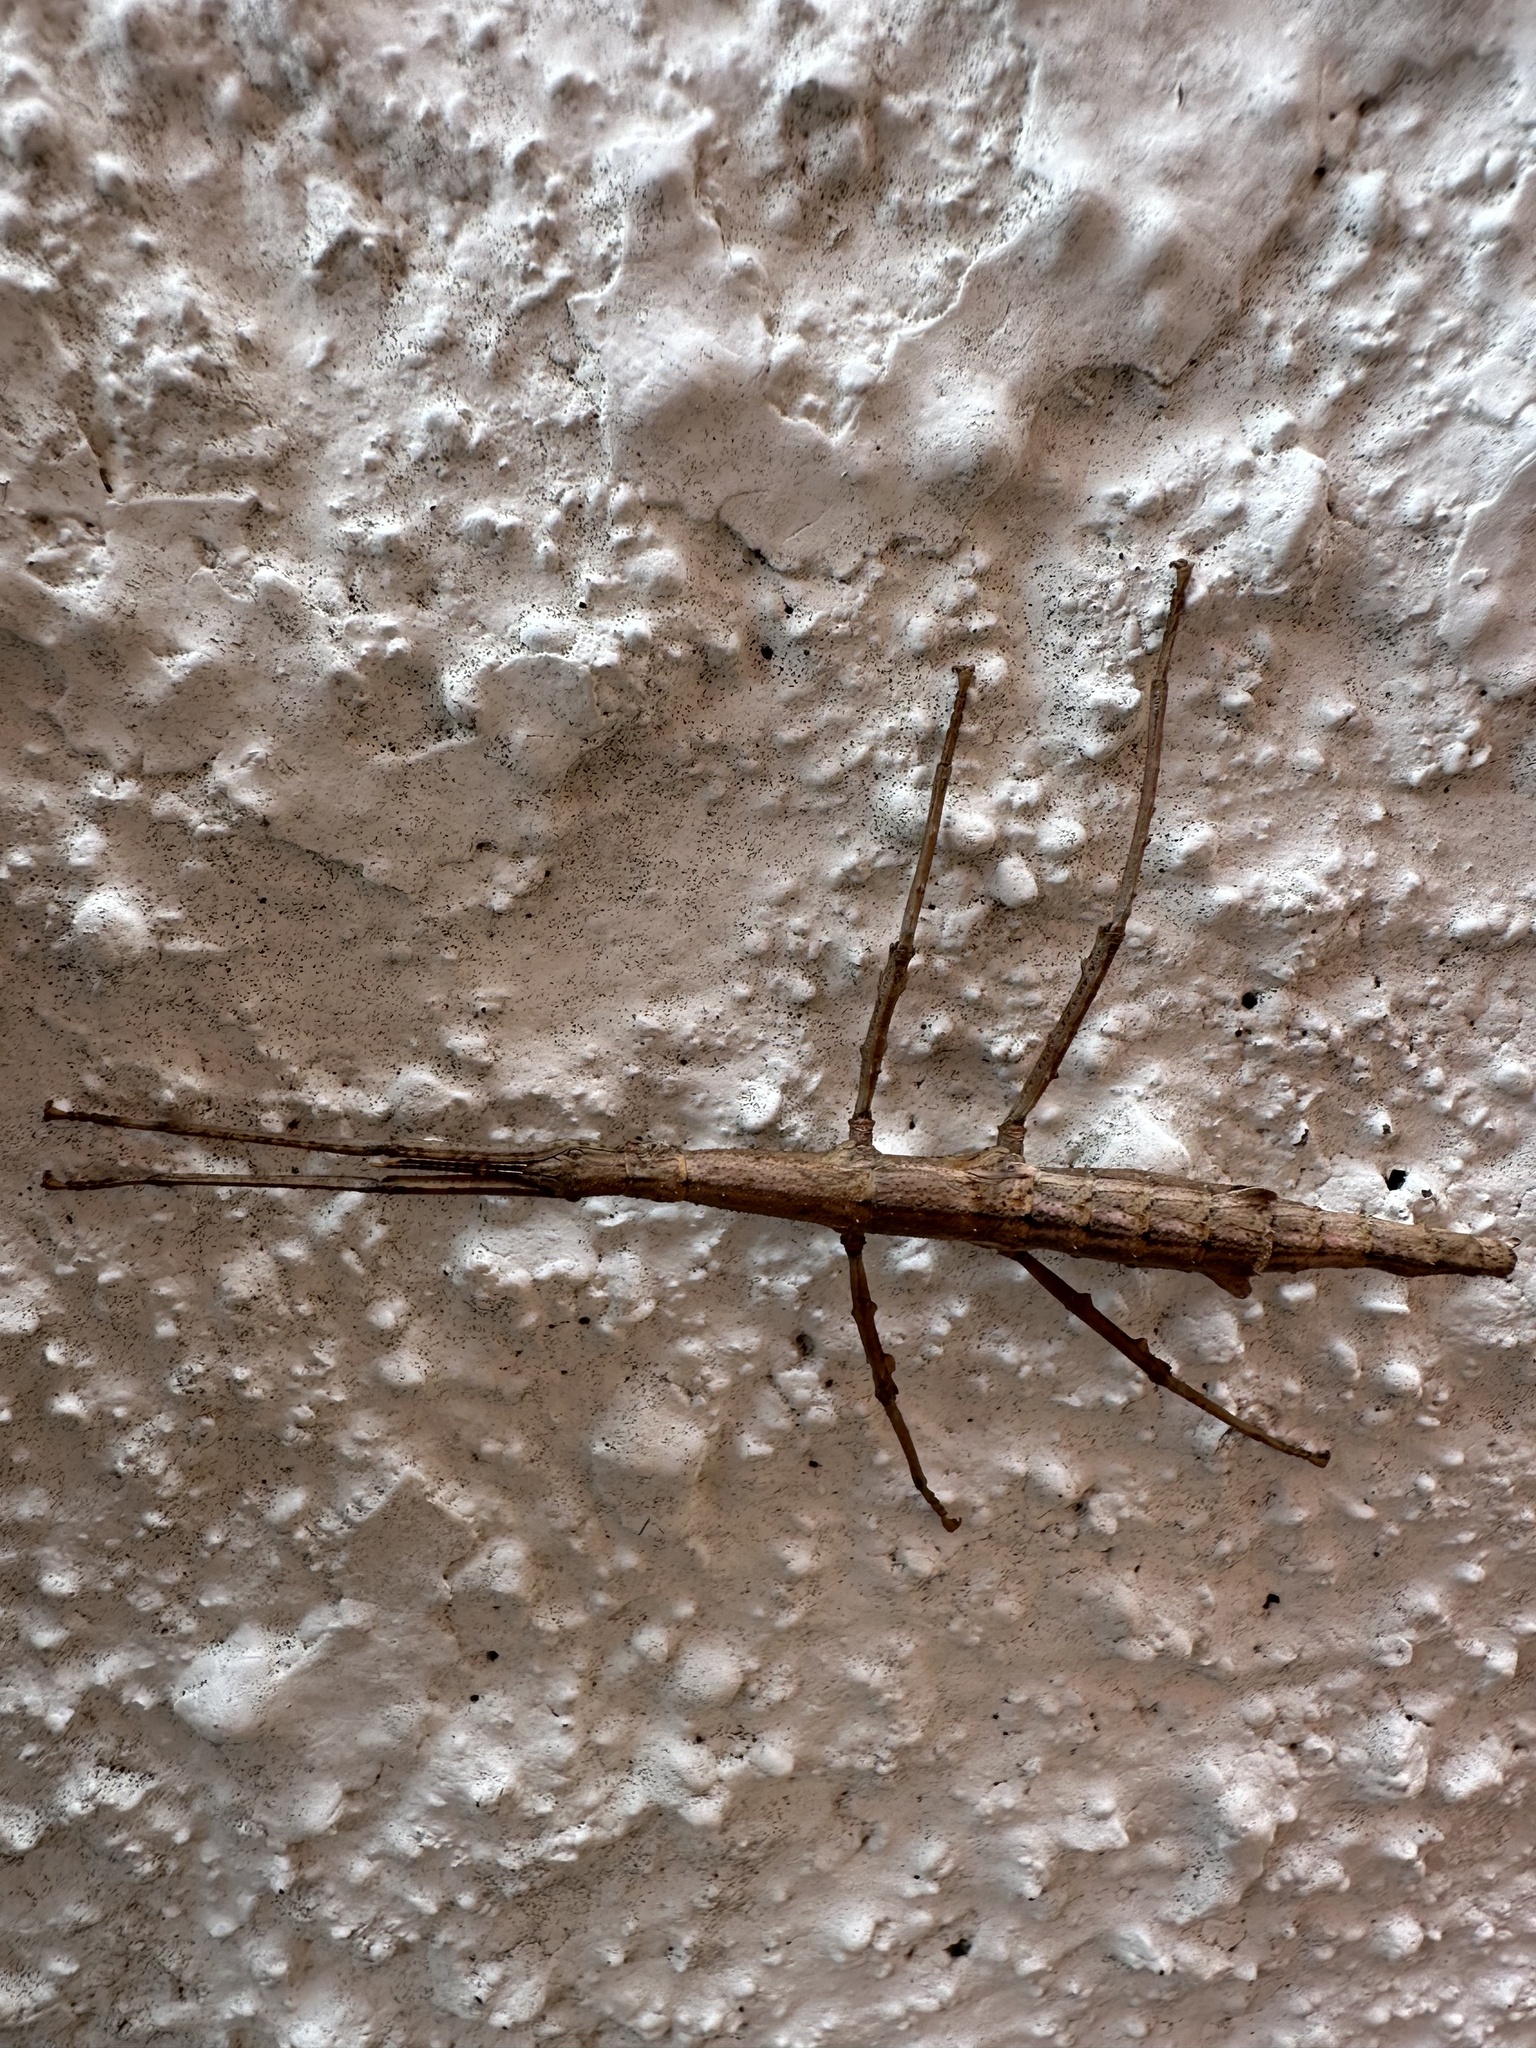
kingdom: Animalia
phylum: Arthropoda
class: Insecta
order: Phasmida
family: Phasmatidae
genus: Niveaphasma
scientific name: Niveaphasma annulatum
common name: Hutton's stick insect
